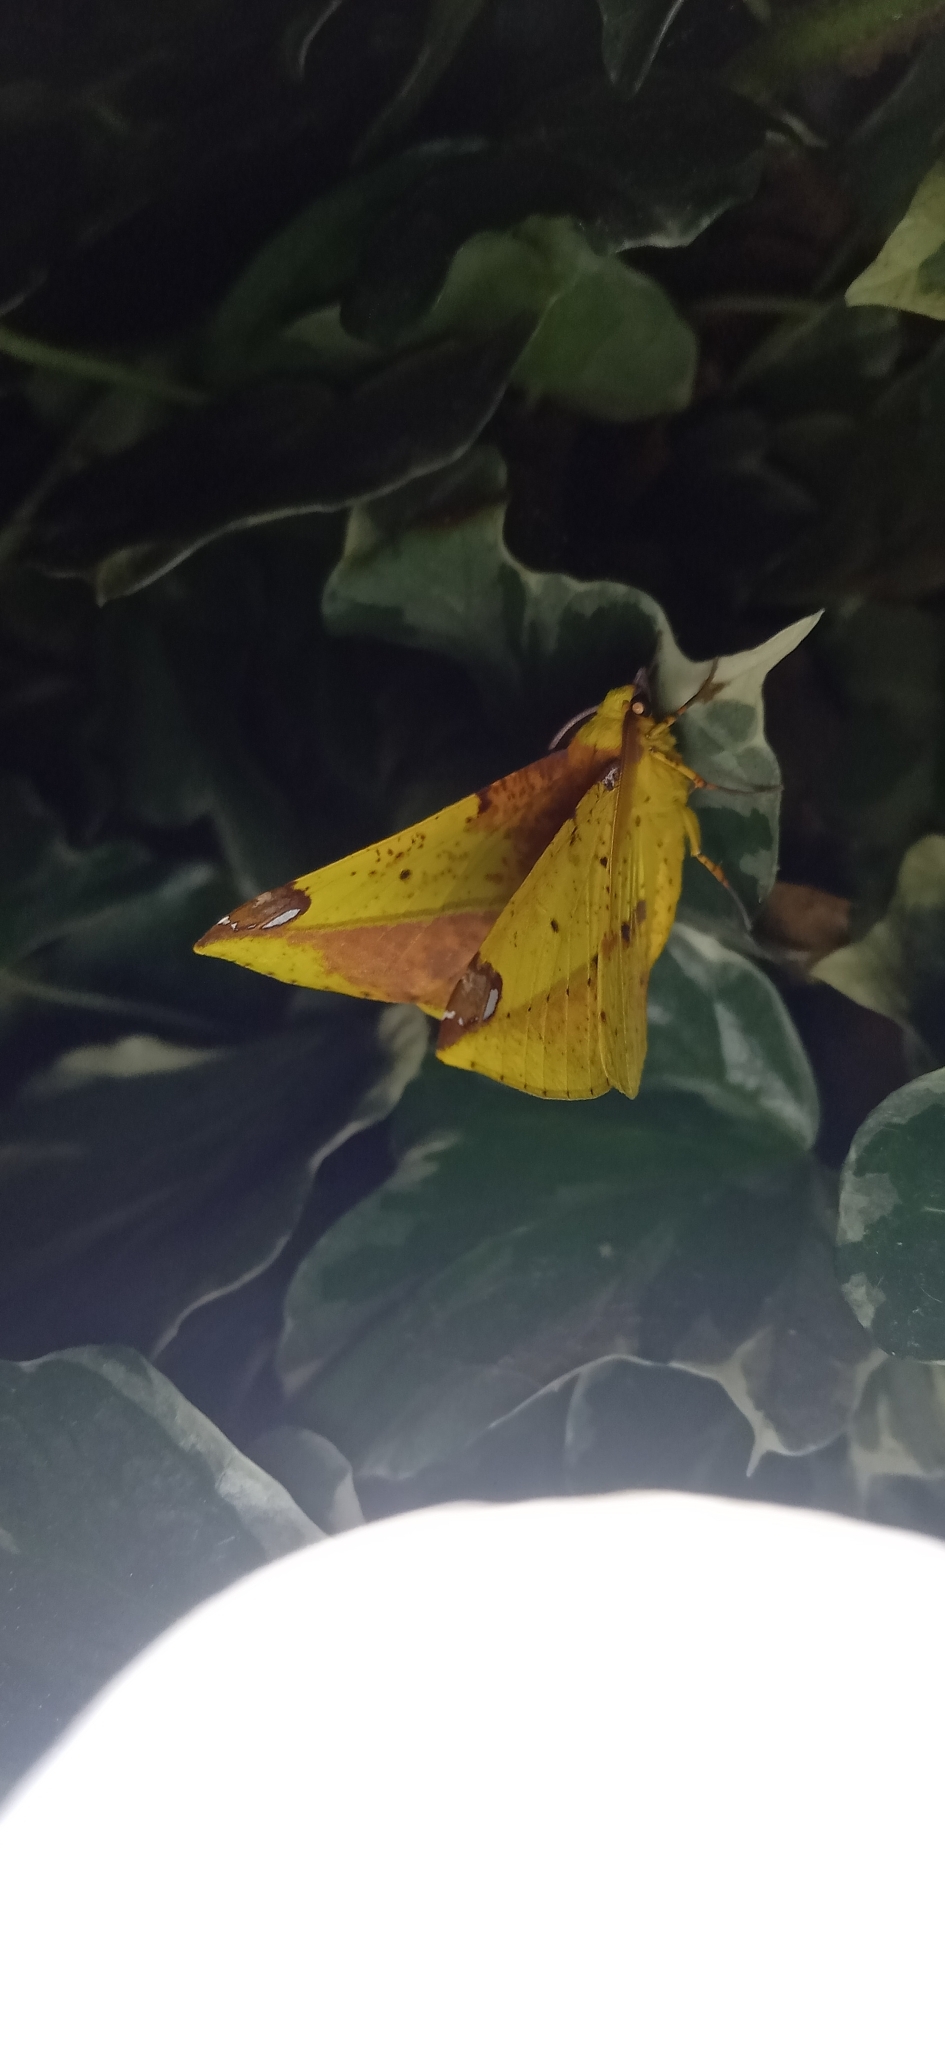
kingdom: Animalia
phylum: Arthropoda
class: Insecta
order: Lepidoptera
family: Geometridae
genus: Mimomiza
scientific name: Mimomiza cruentaria
